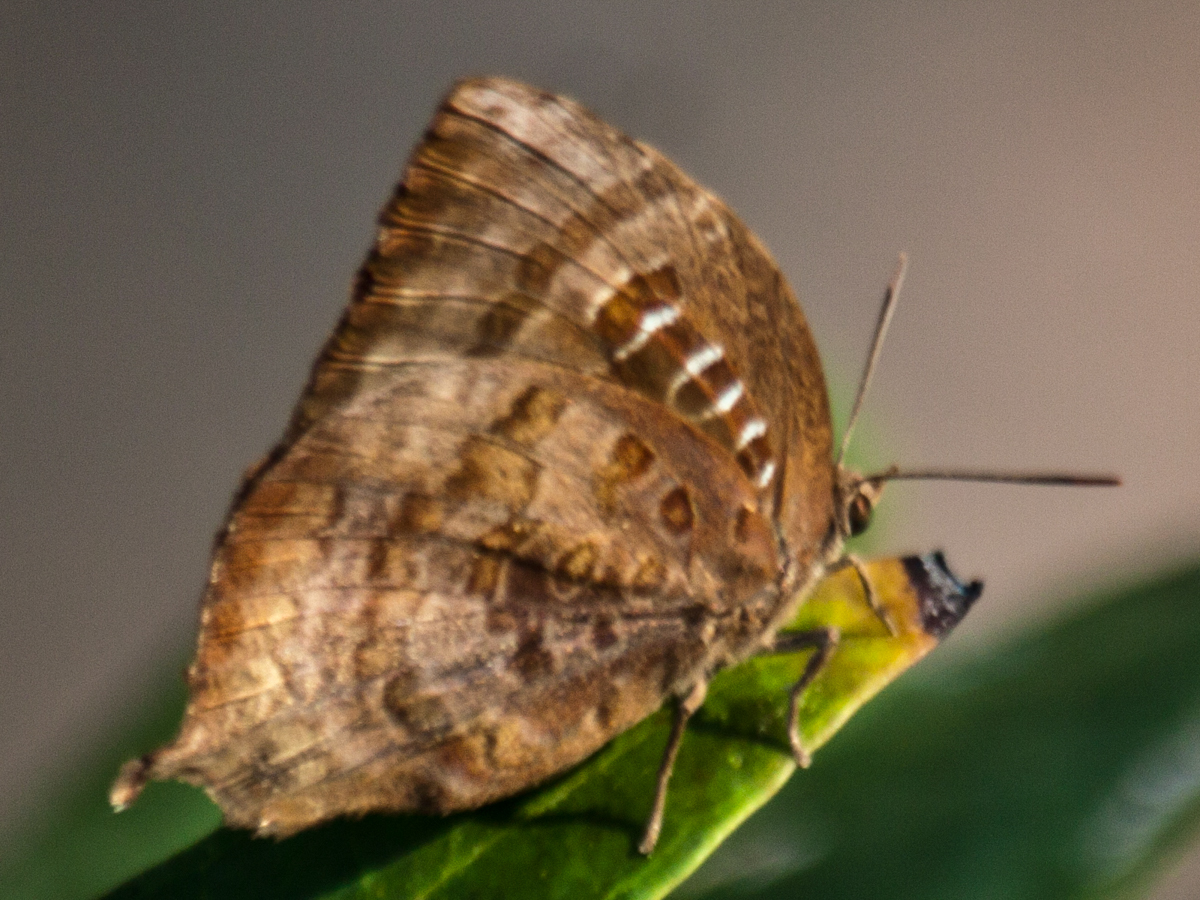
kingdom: Animalia
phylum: Arthropoda
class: Insecta
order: Lepidoptera
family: Lycaenidae
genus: Arhopala
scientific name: Arhopala centaurus
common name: Dull oak-blue
